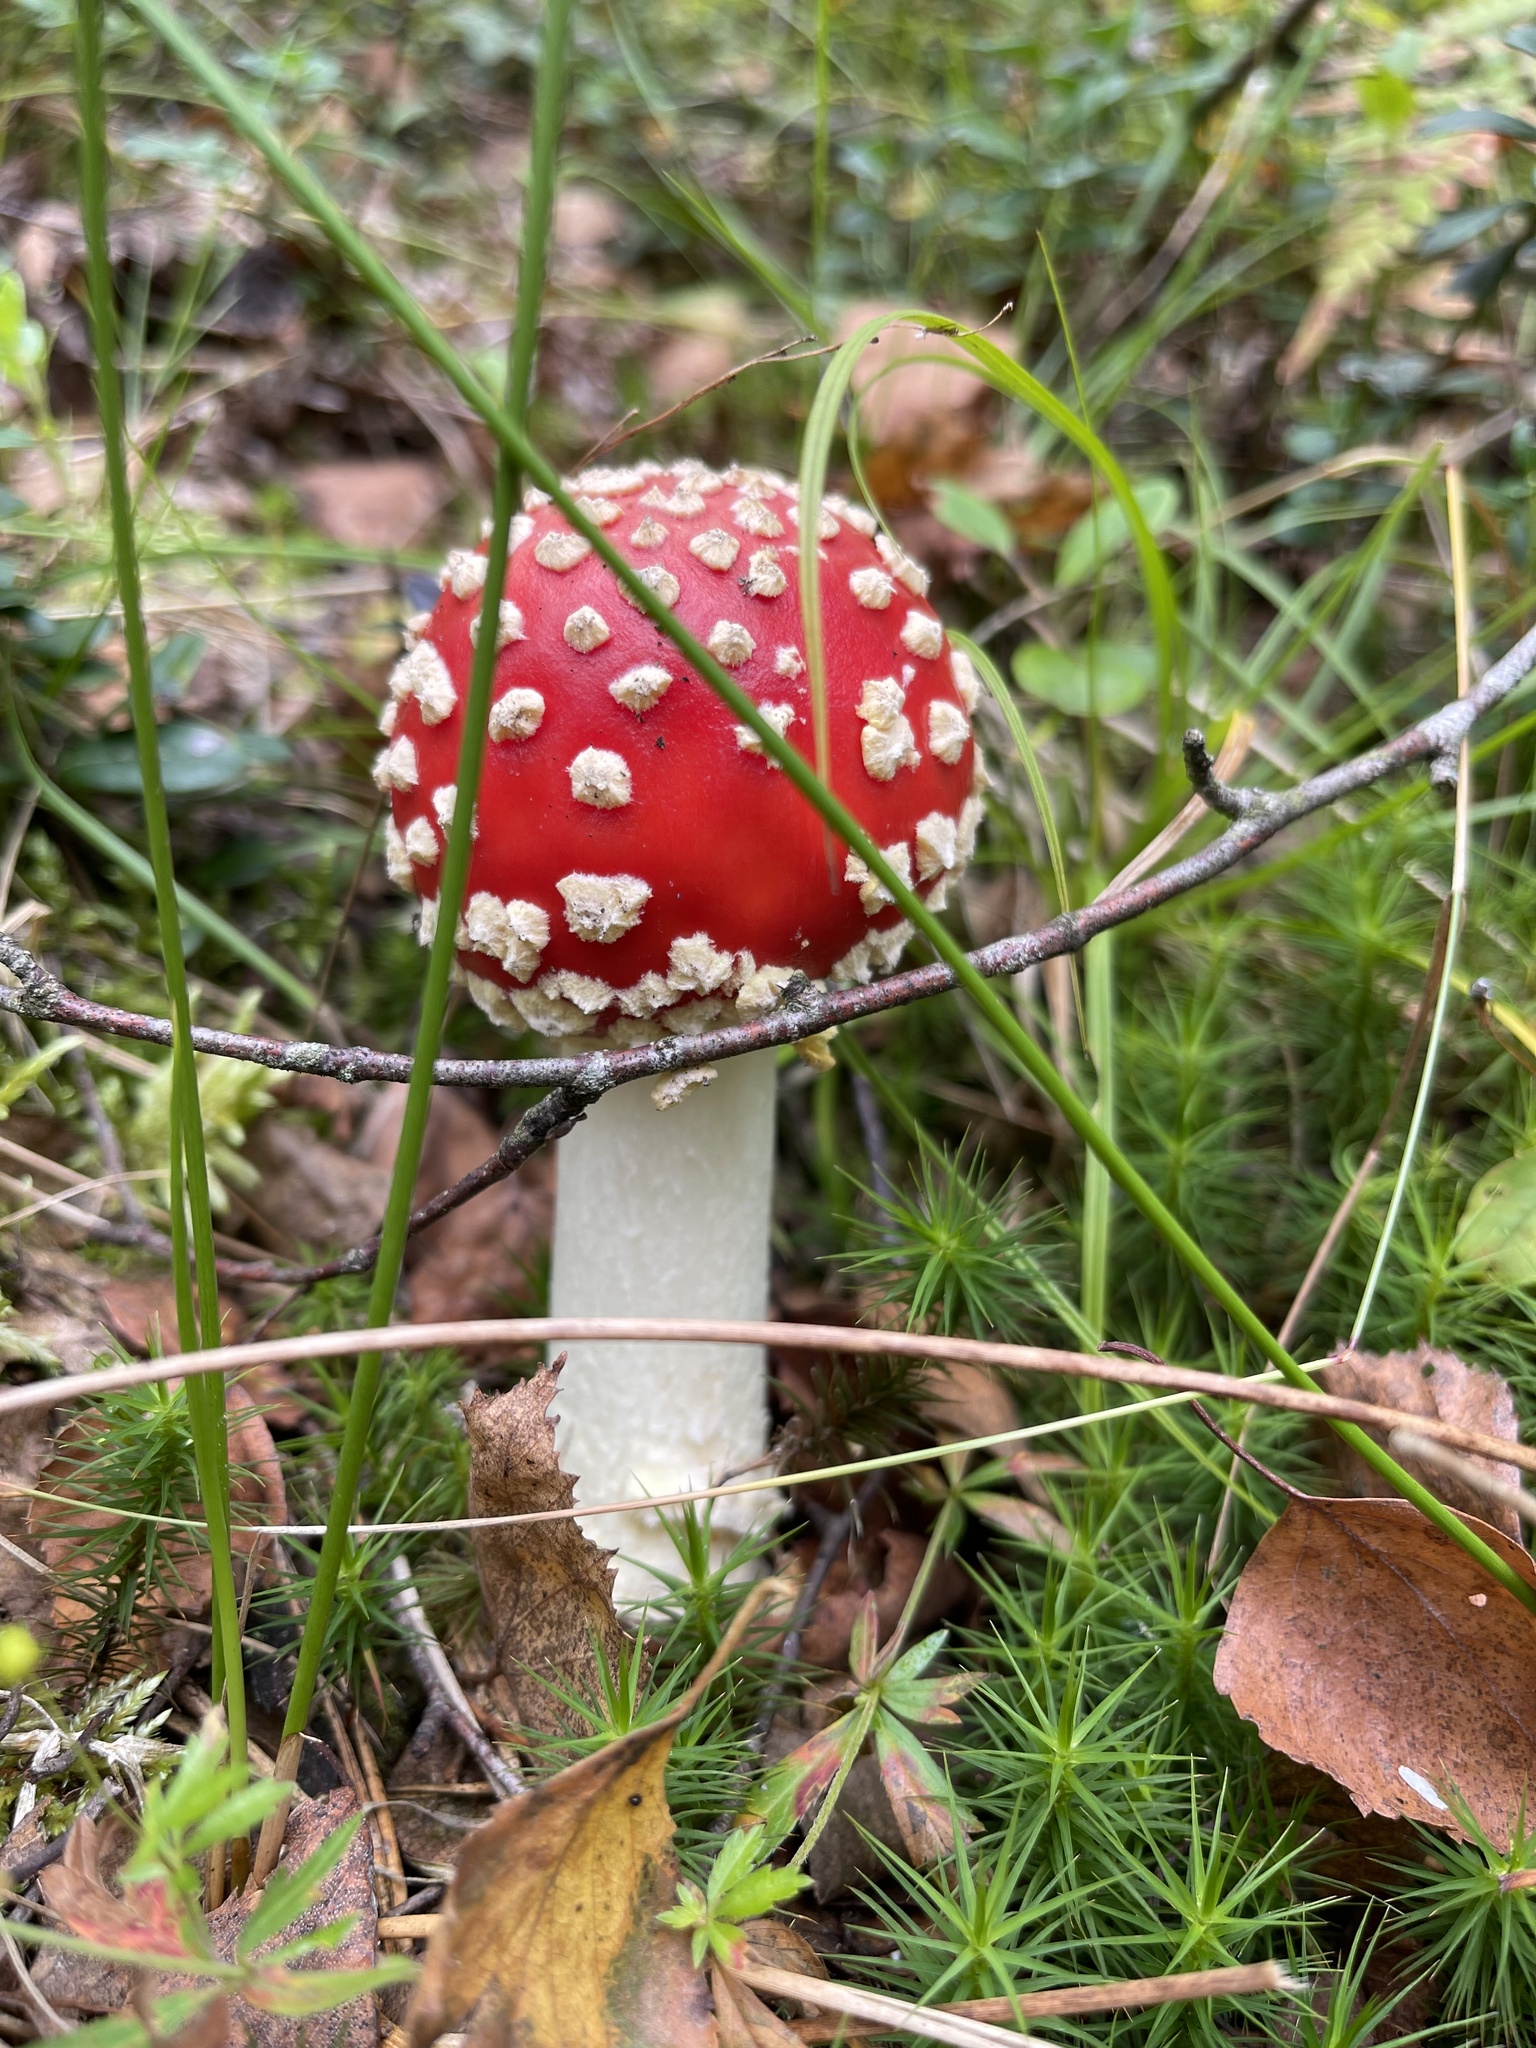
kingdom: Fungi
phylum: Basidiomycota
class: Agaricomycetes
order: Agaricales
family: Amanitaceae
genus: Amanita
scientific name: Amanita muscaria
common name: Fly agaric
